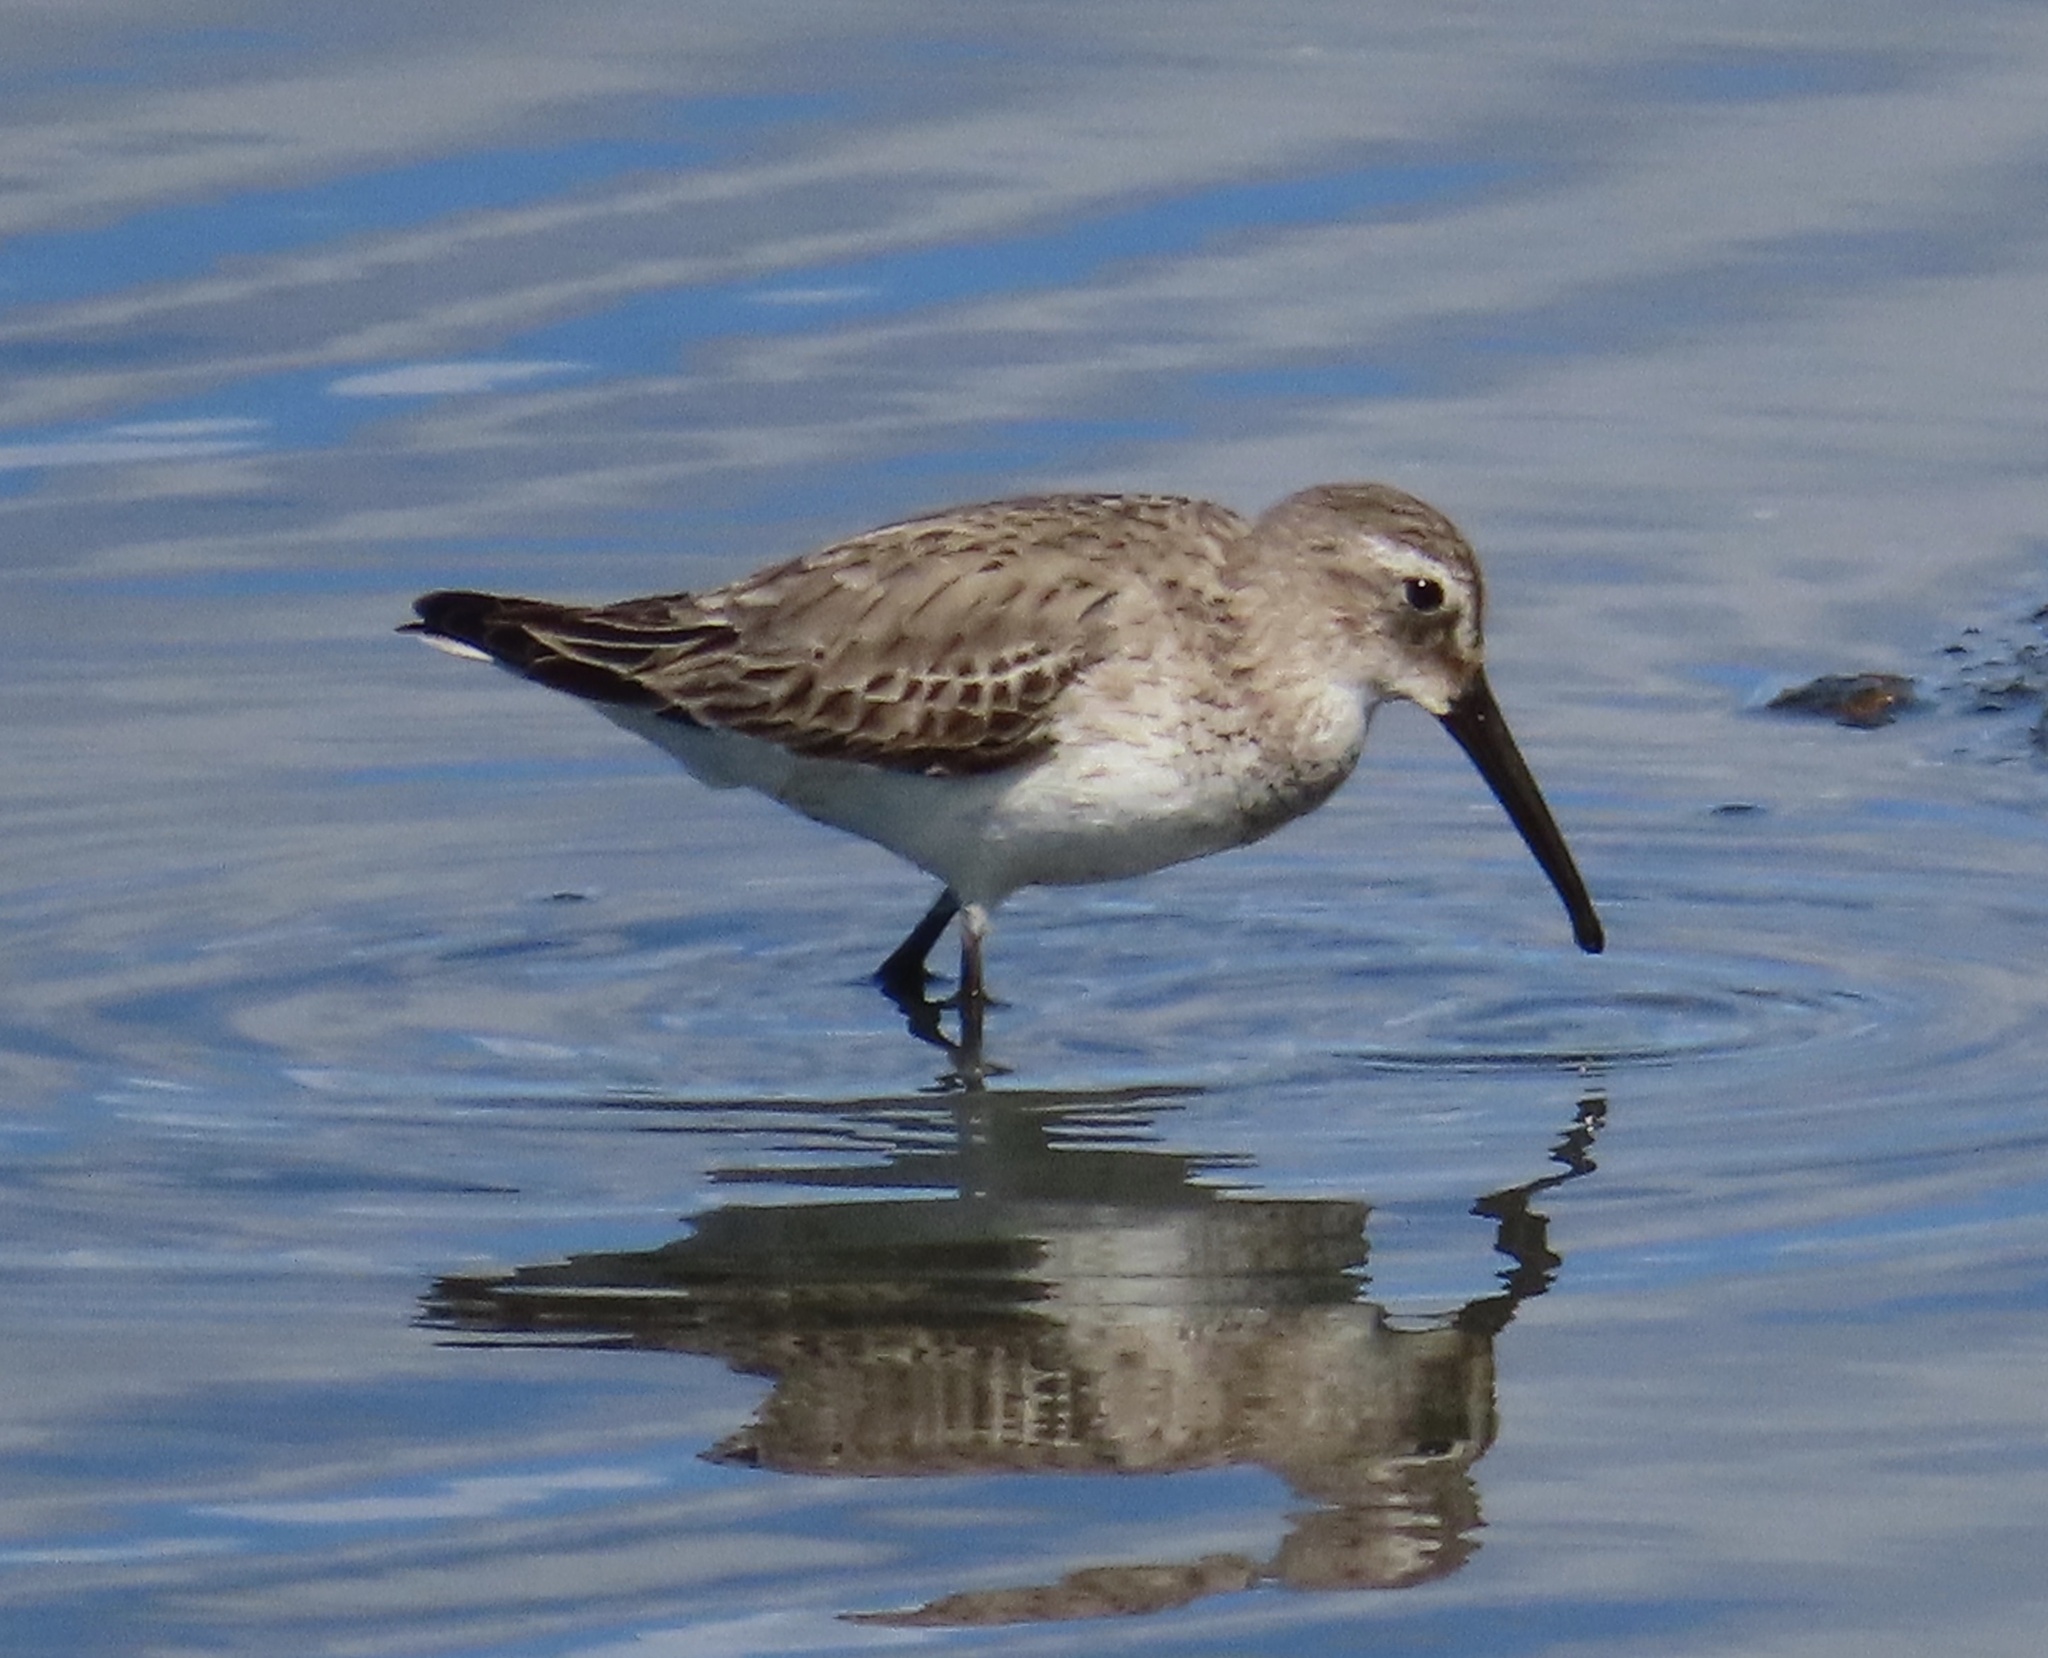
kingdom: Animalia
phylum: Chordata
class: Aves
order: Charadriiformes
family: Scolopacidae
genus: Calidris
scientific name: Calidris alpina
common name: Dunlin
